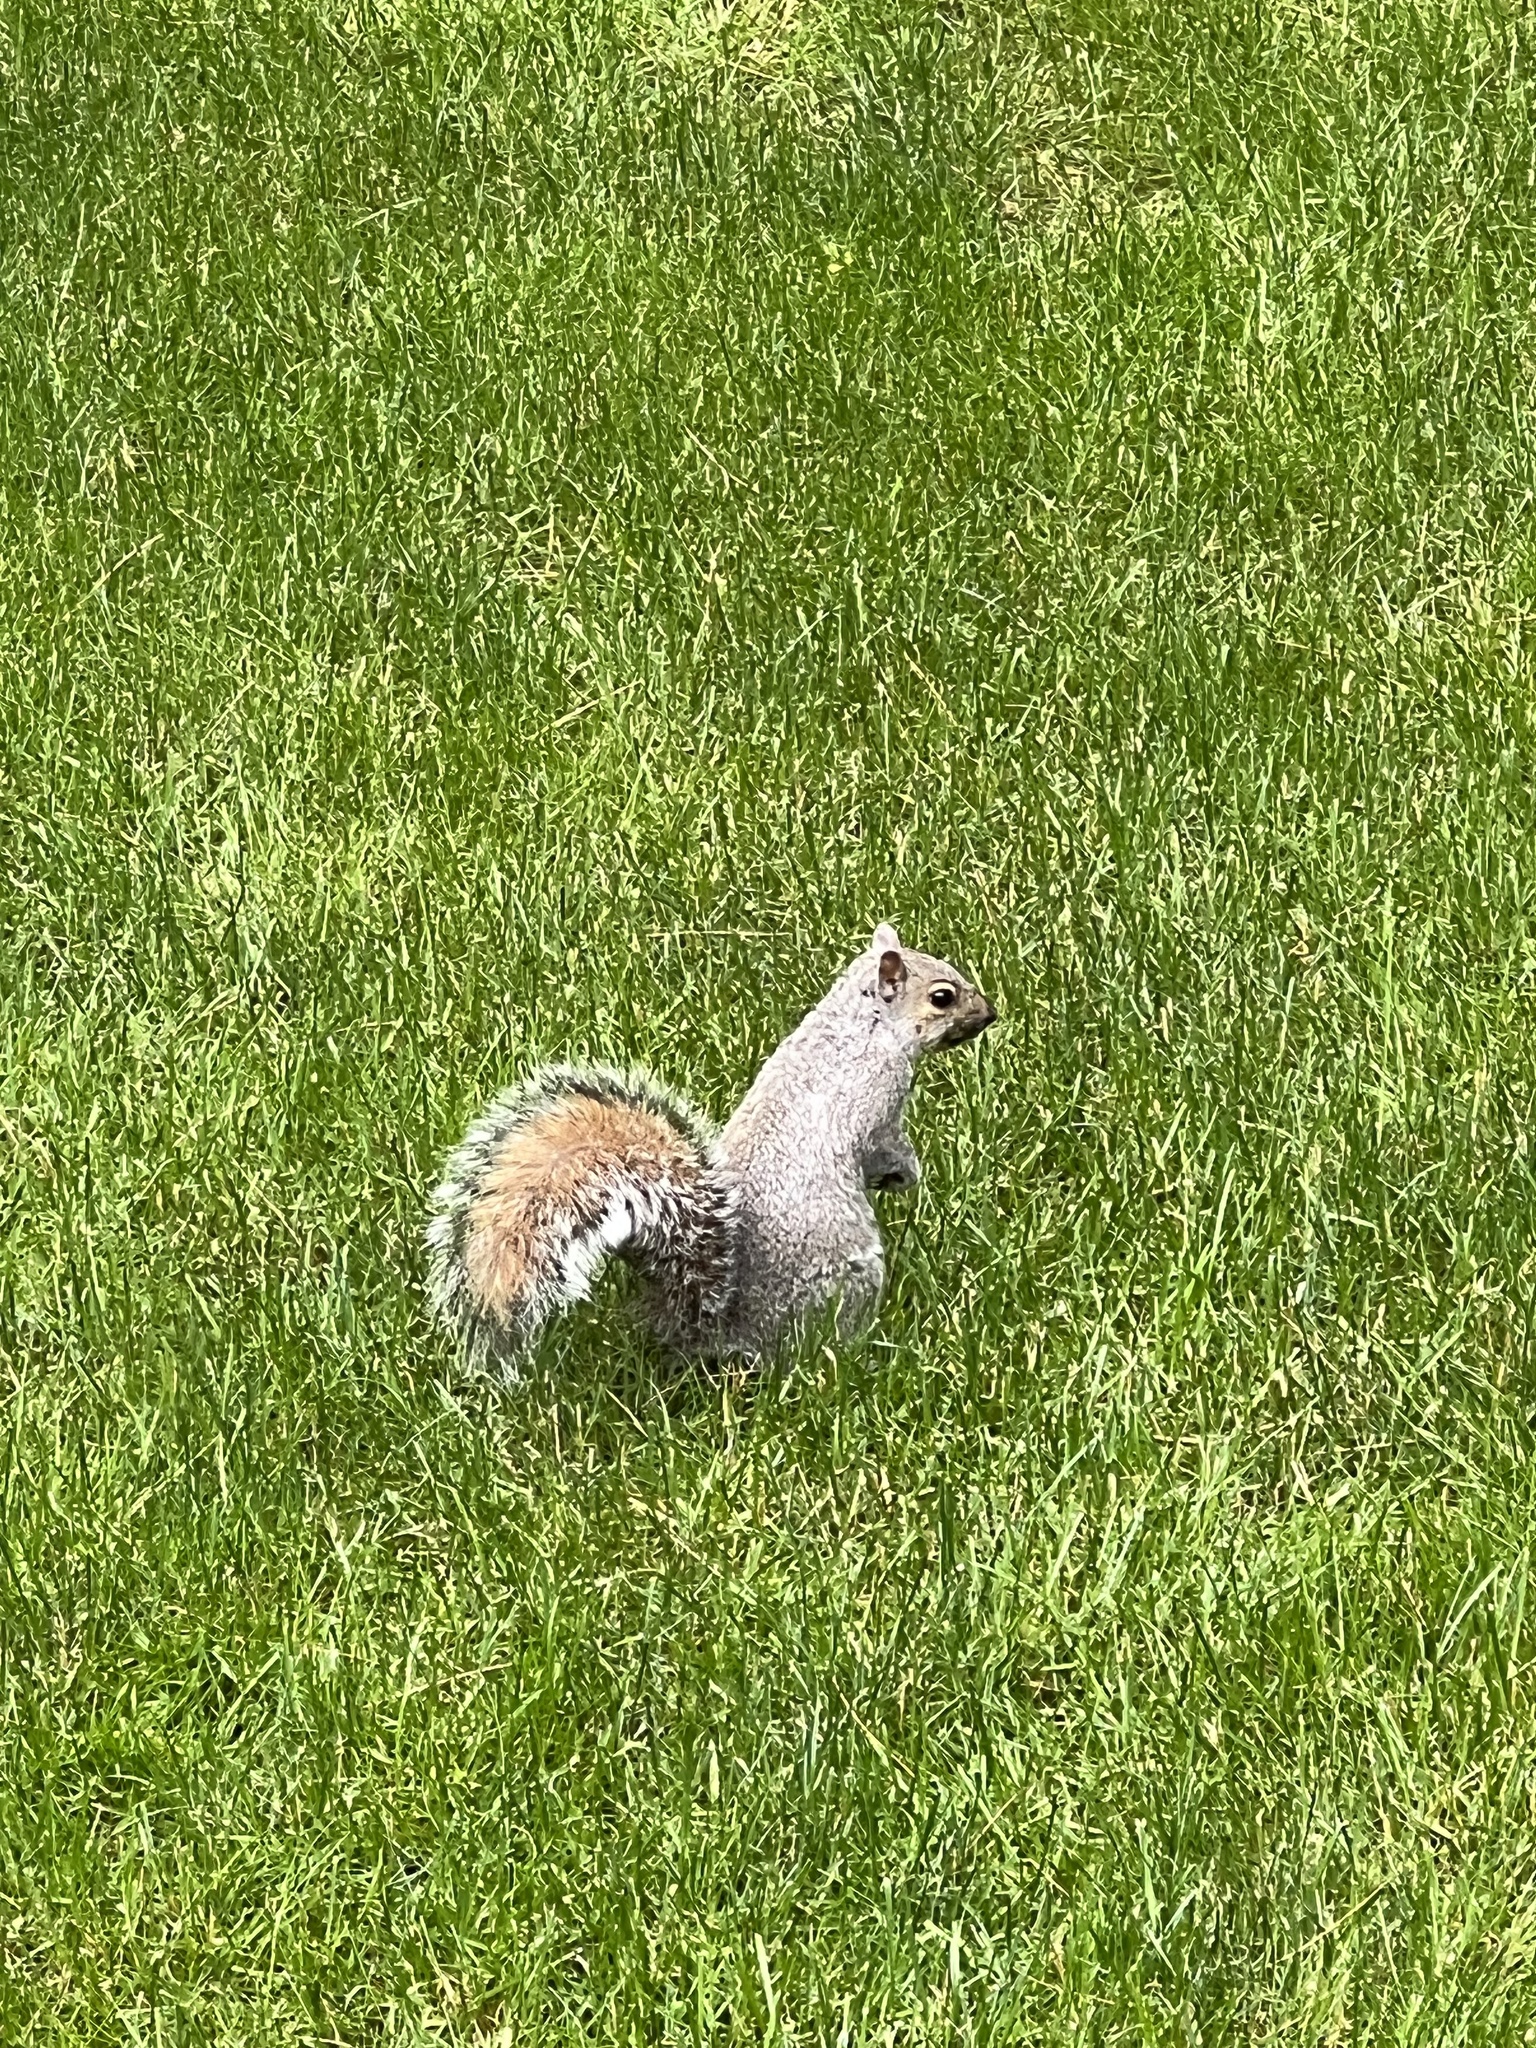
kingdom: Animalia
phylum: Chordata
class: Mammalia
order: Rodentia
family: Sciuridae
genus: Sciurus
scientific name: Sciurus carolinensis
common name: Eastern gray squirrel
